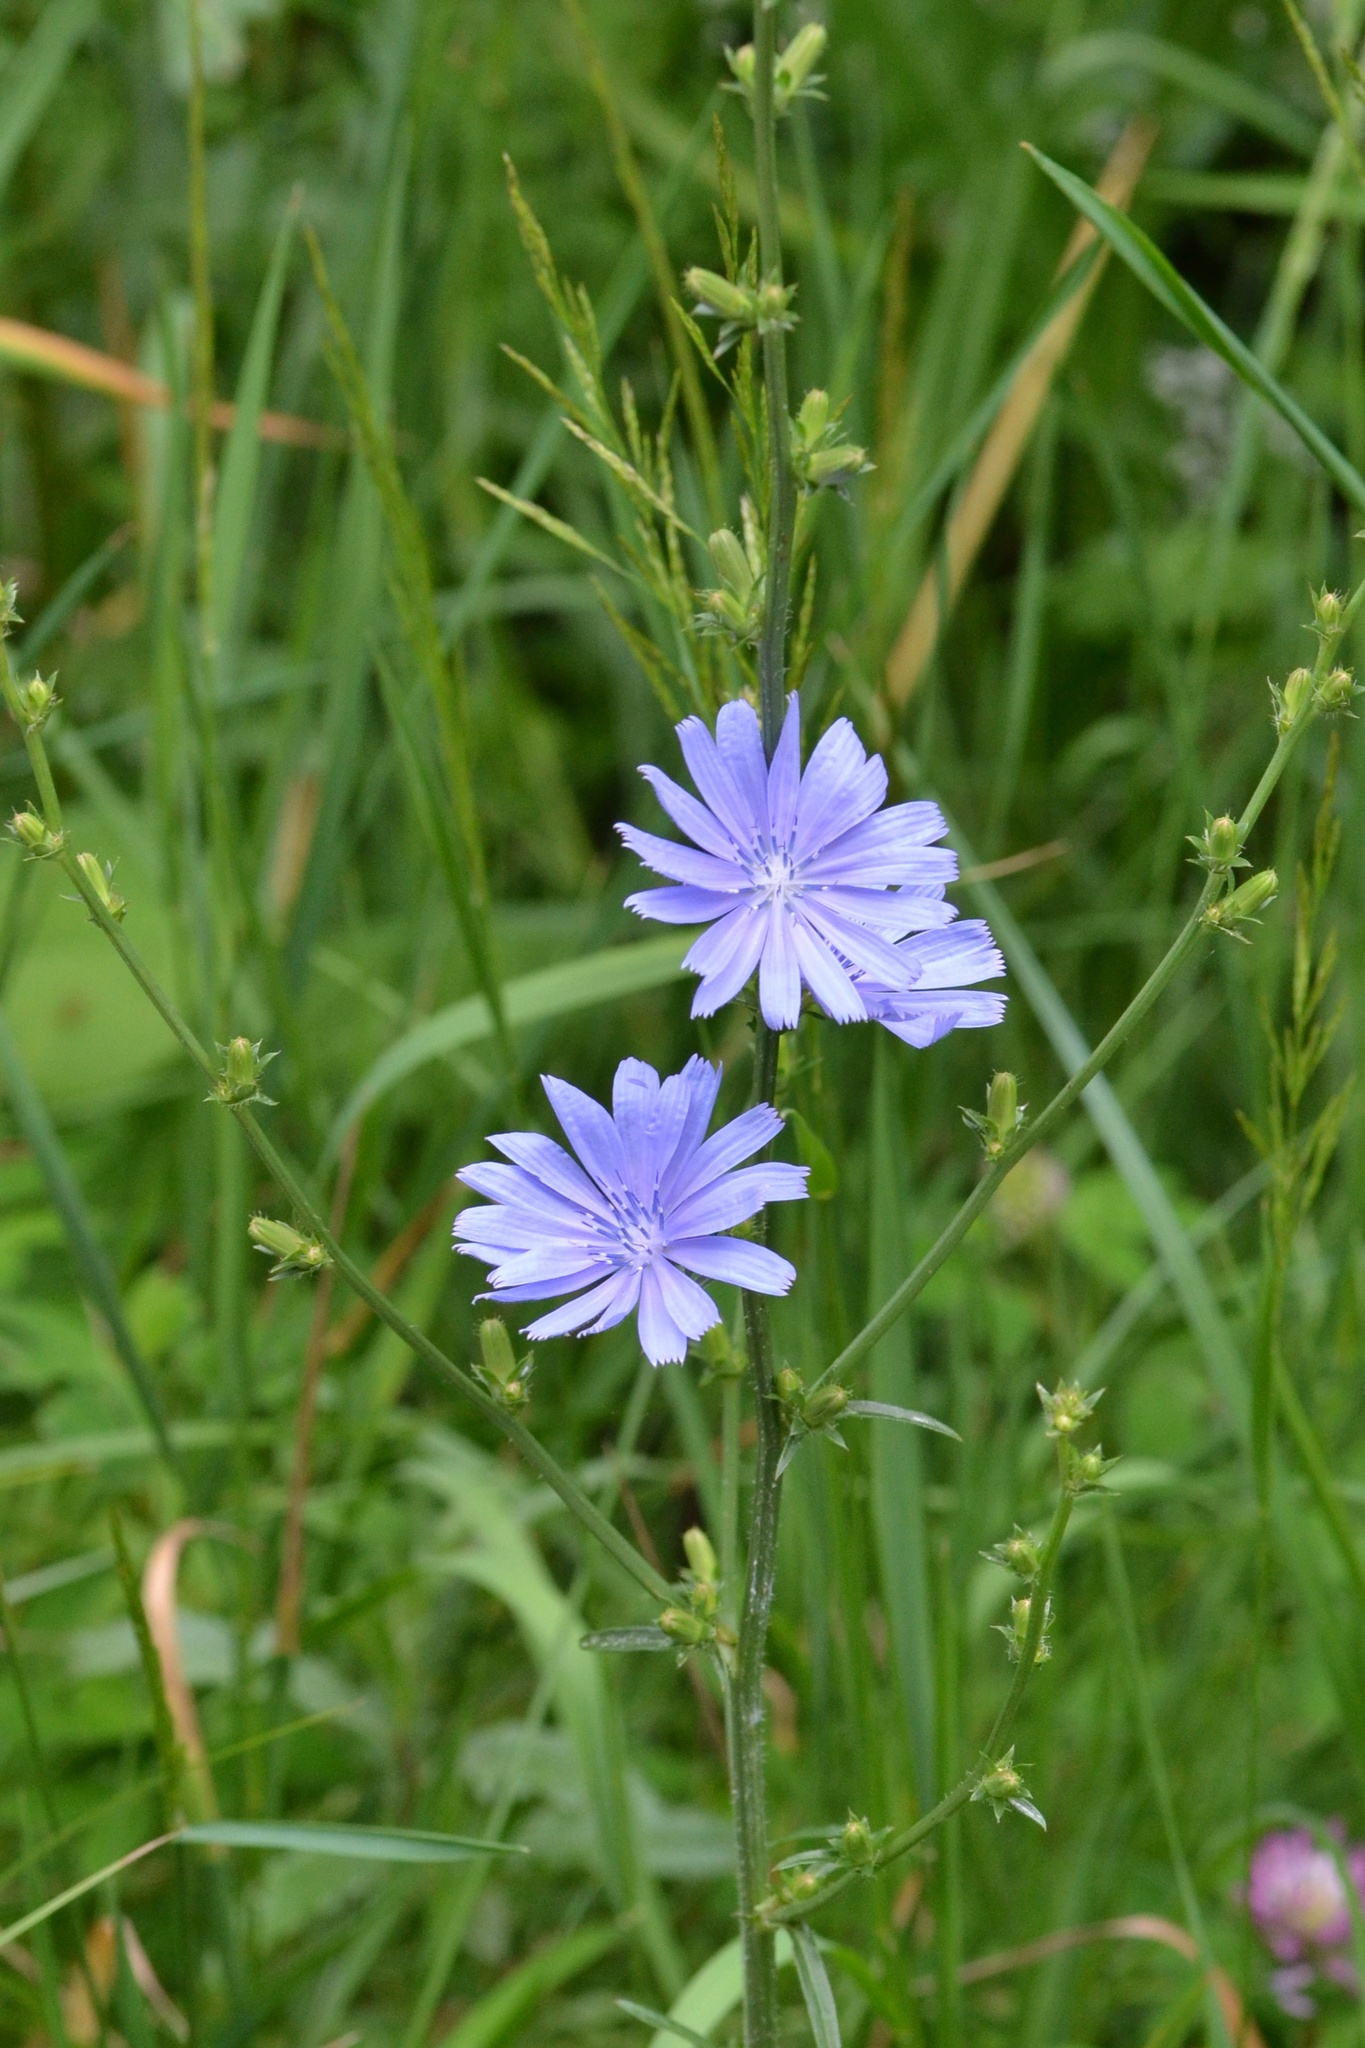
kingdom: Plantae
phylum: Tracheophyta
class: Magnoliopsida
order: Asterales
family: Asteraceae
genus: Cichorium
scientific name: Cichorium intybus
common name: Chicory
